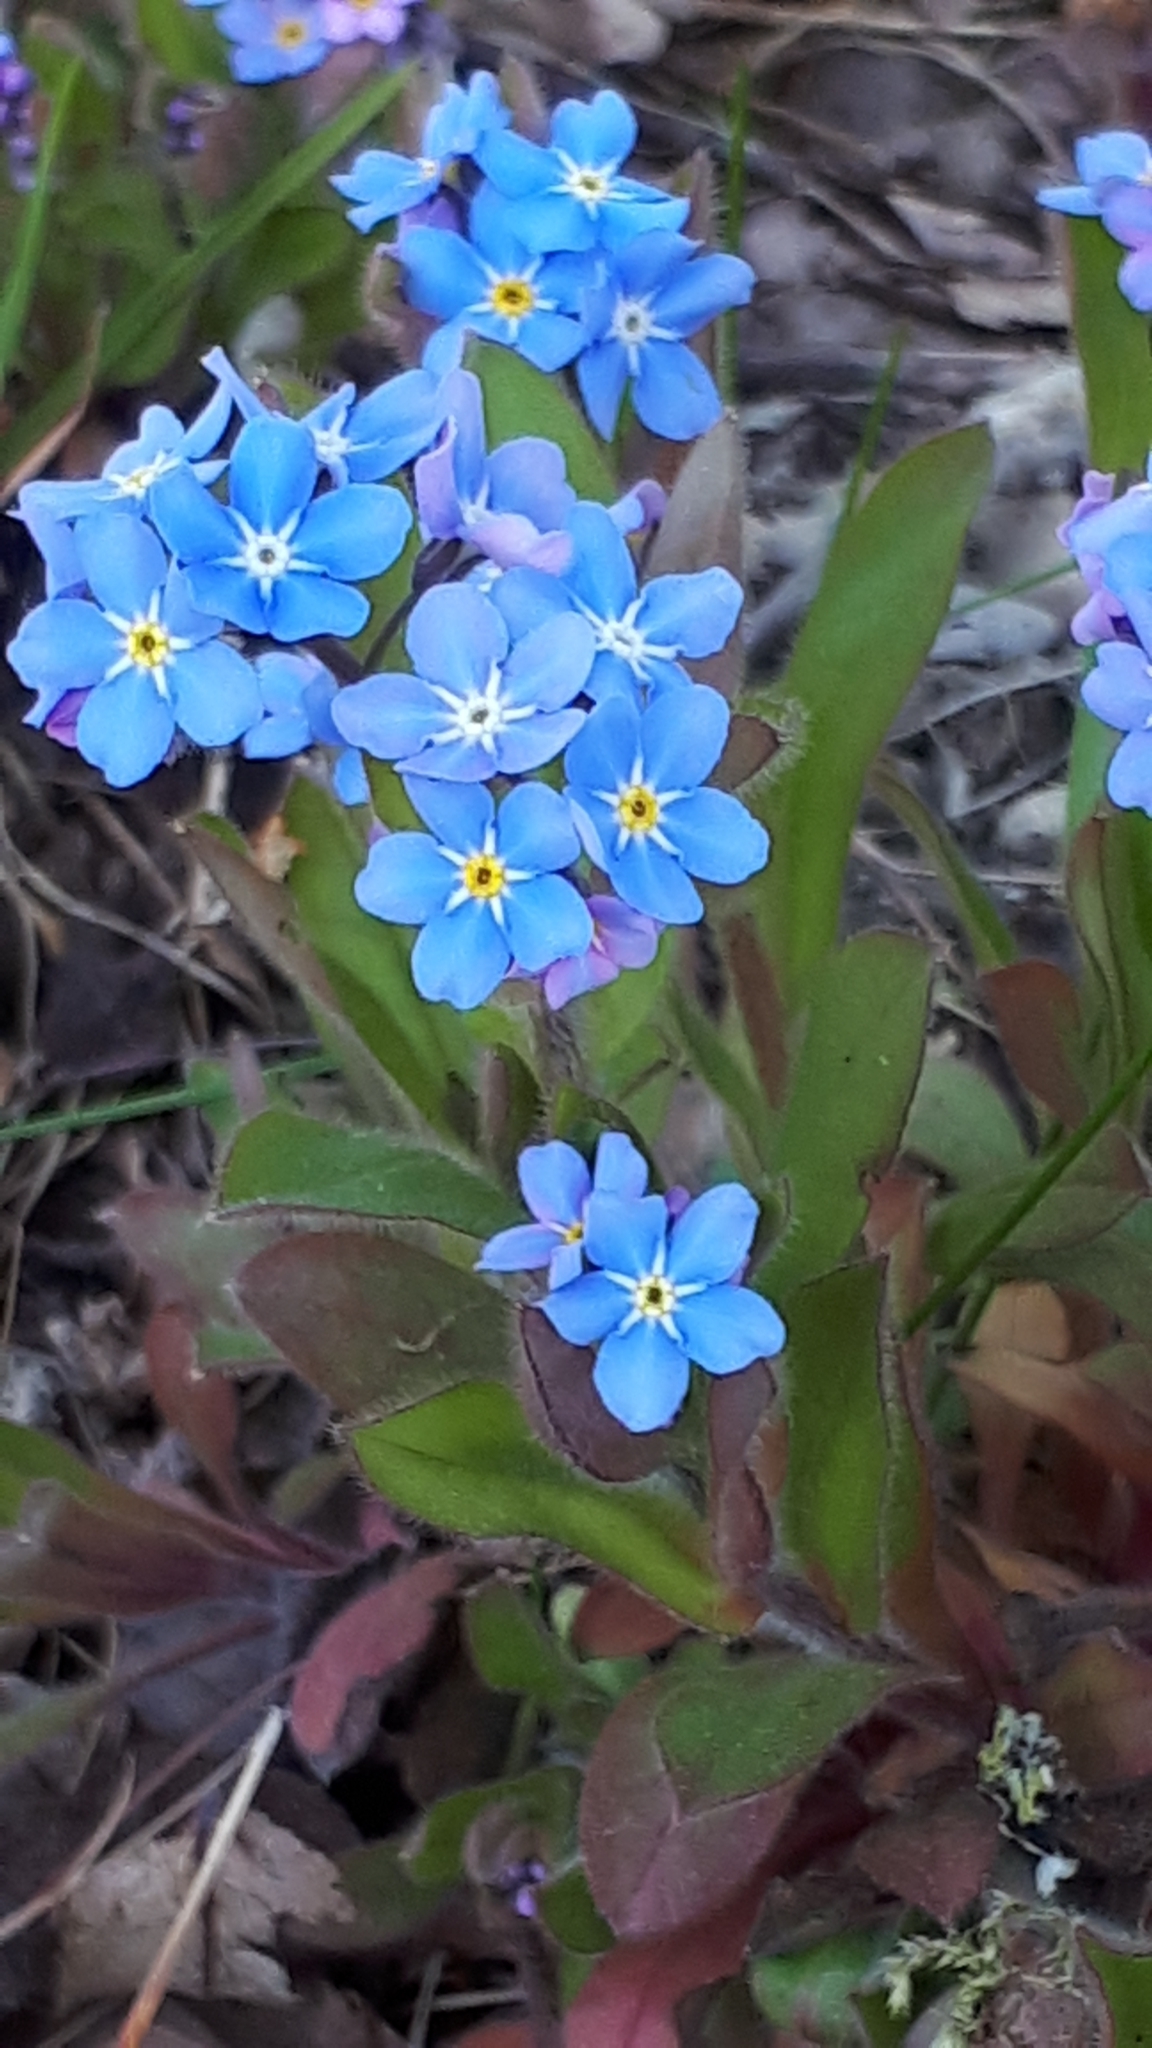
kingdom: Plantae
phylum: Tracheophyta
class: Magnoliopsida
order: Boraginales
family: Boraginaceae
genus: Myosotis
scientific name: Myosotis sylvatica
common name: Wood forget-me-not
